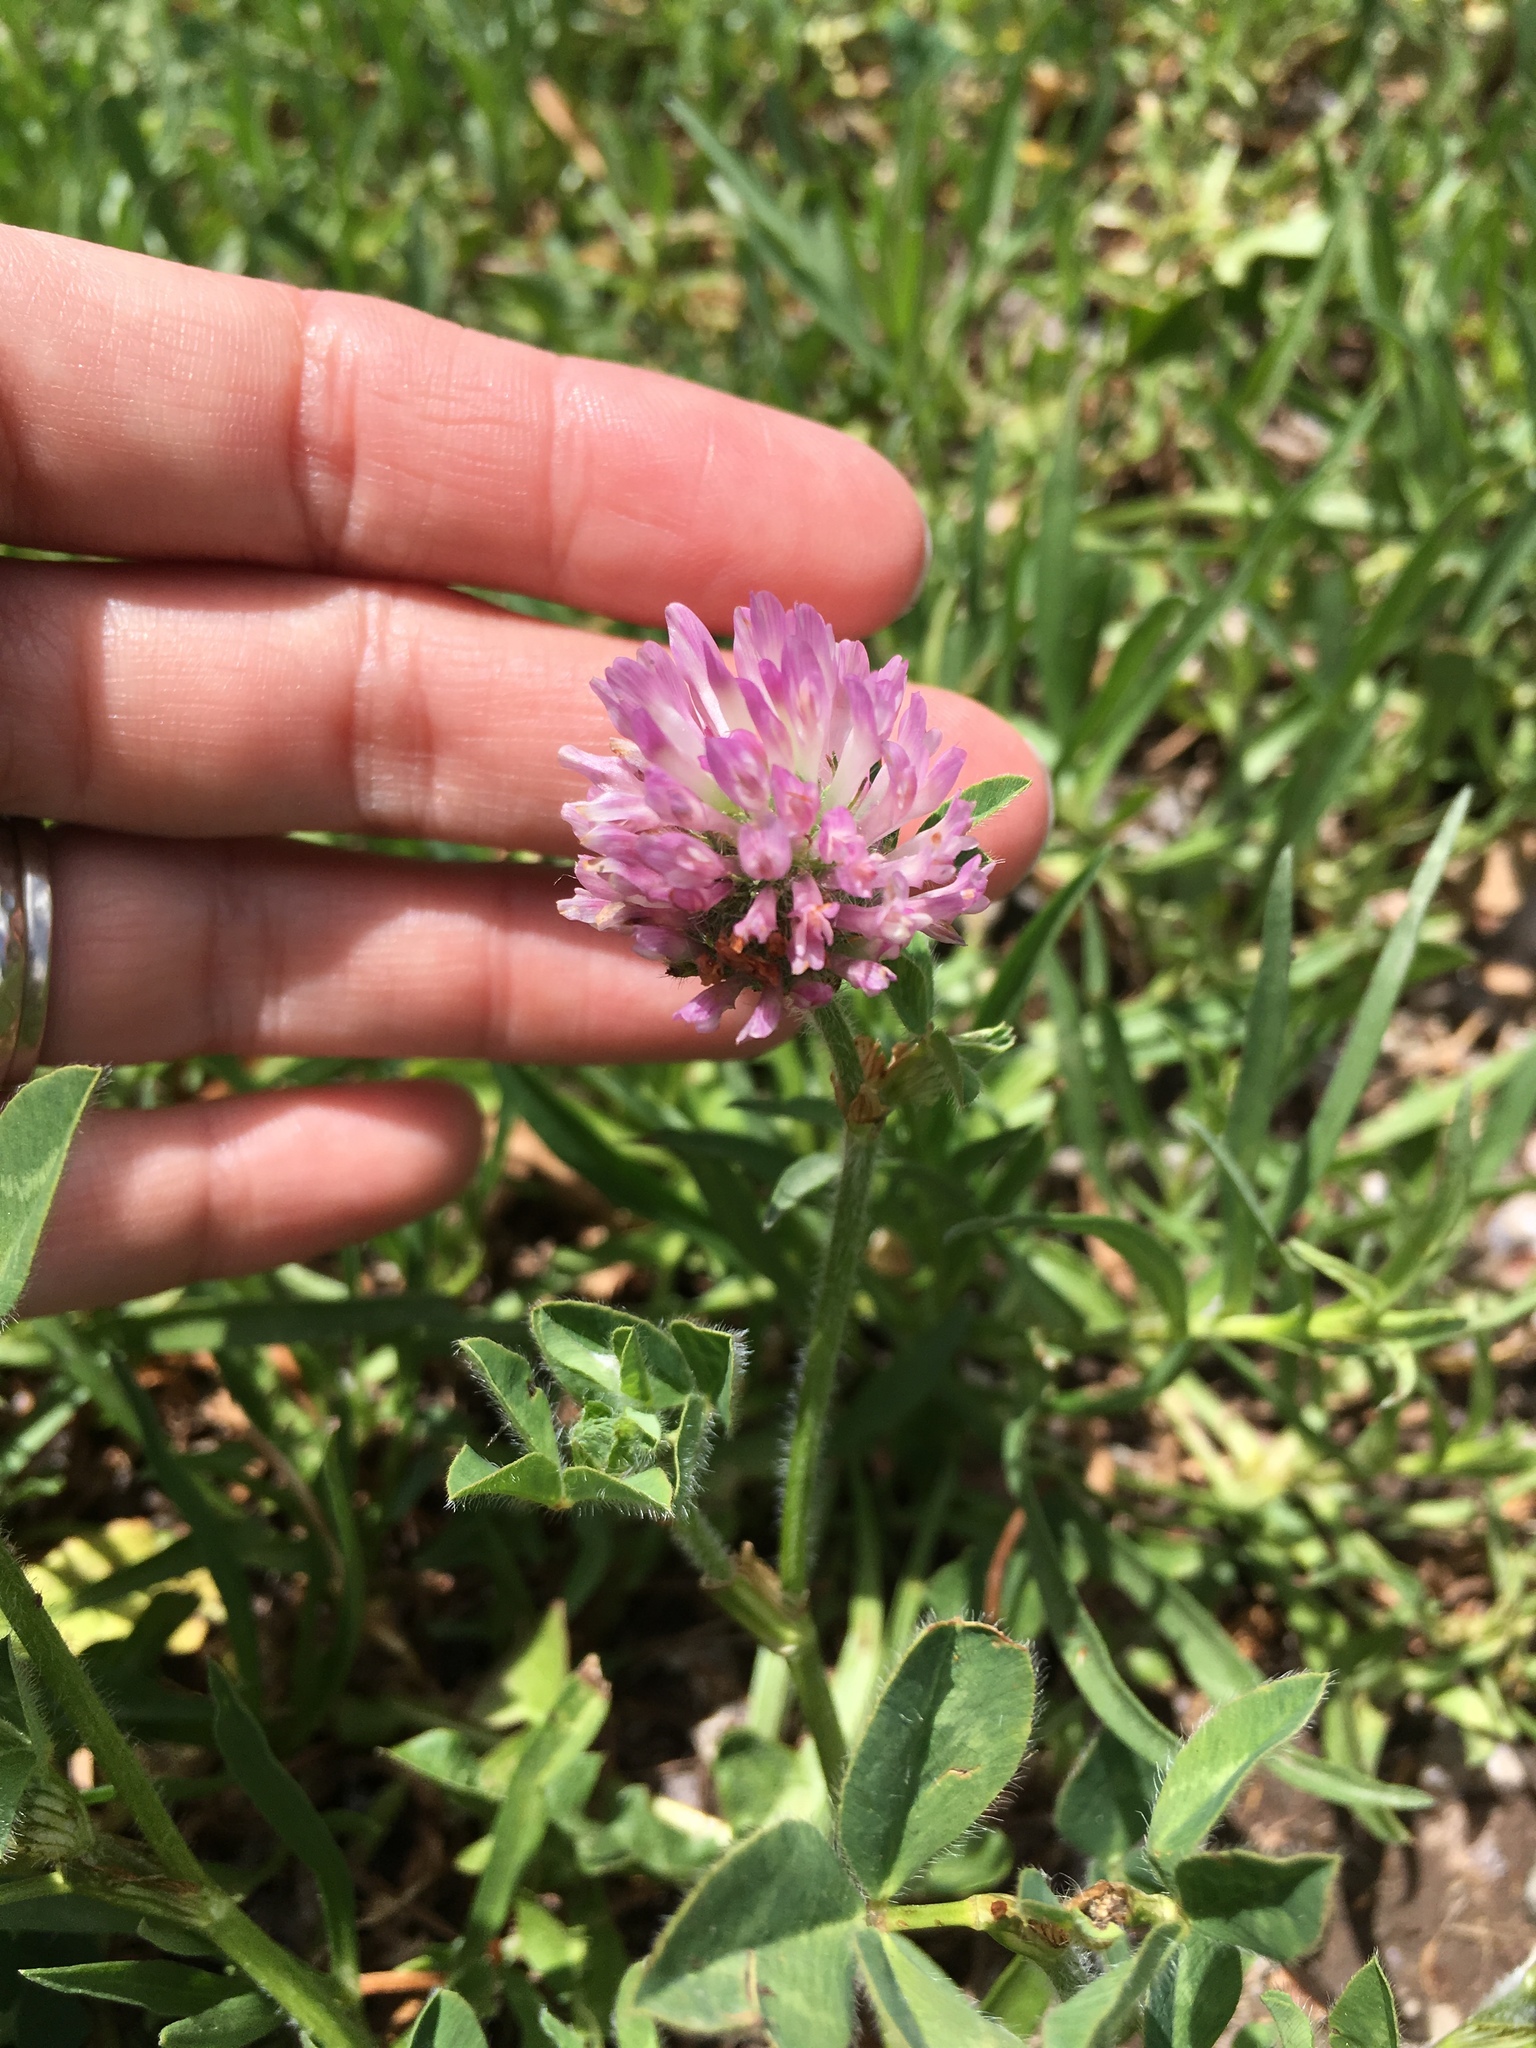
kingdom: Plantae
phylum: Tracheophyta
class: Magnoliopsida
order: Fabales
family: Fabaceae
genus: Trifolium
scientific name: Trifolium pratense
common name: Red clover
